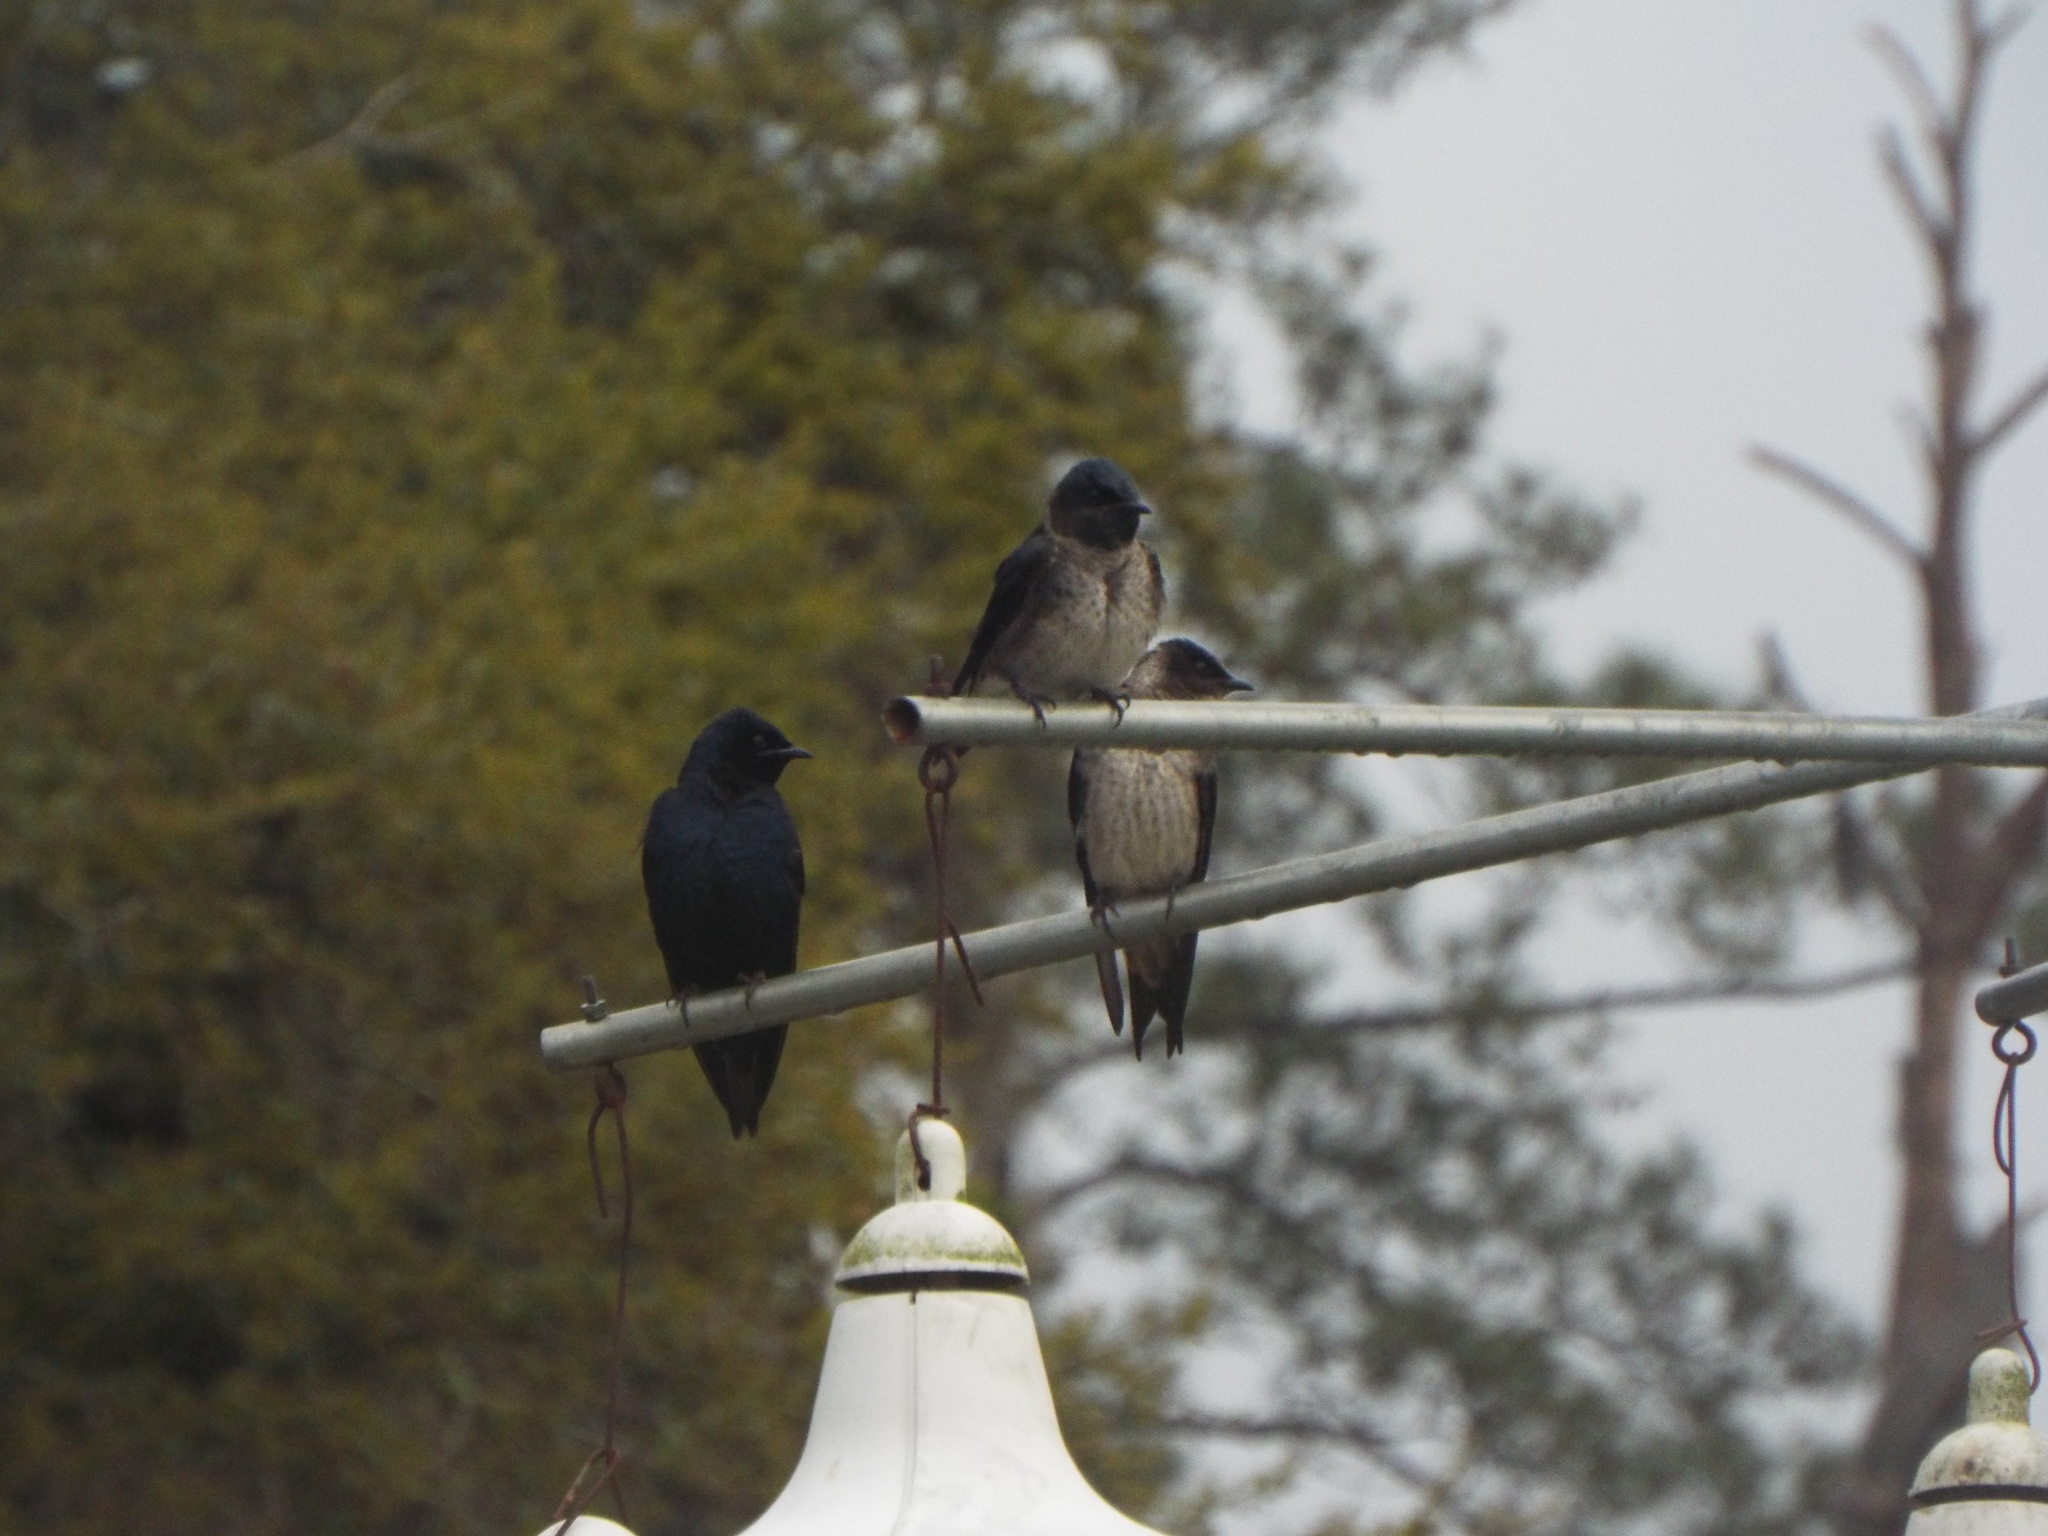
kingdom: Animalia
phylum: Chordata
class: Aves
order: Passeriformes
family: Hirundinidae
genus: Progne
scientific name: Progne subis
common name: Purple martin
